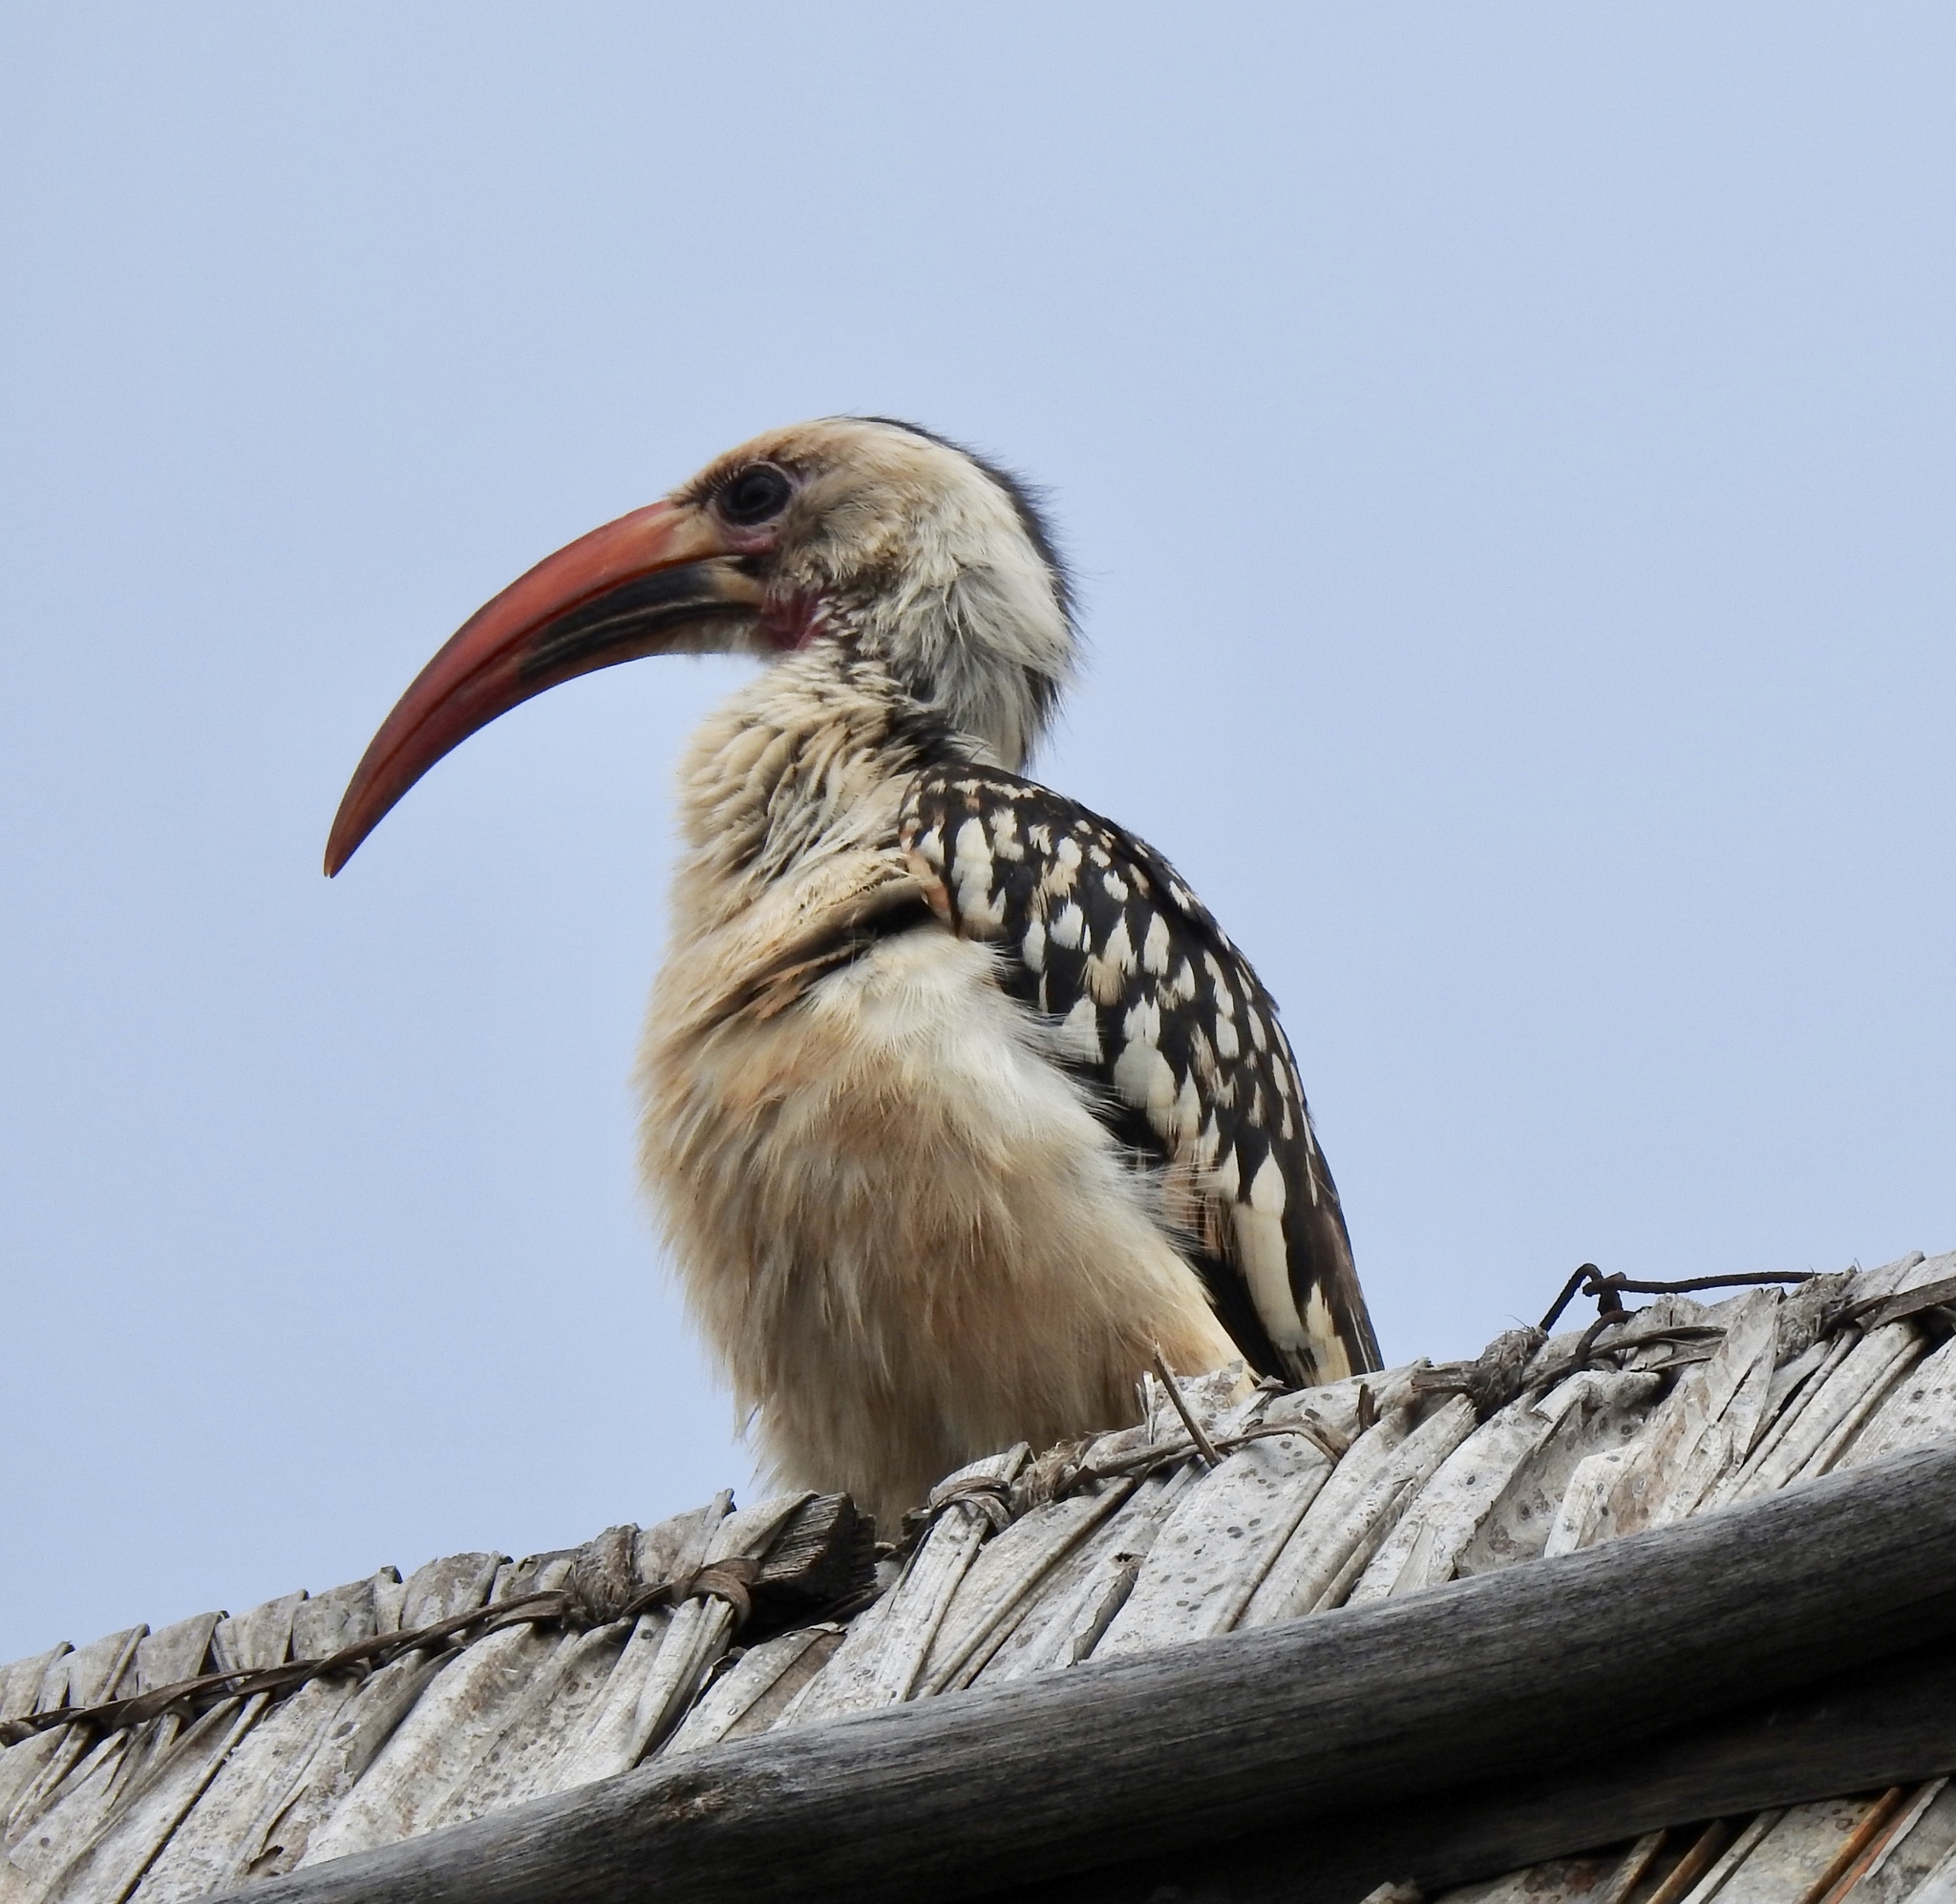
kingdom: Animalia
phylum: Chordata
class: Aves
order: Bucerotiformes
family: Bucerotidae
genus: Tockus
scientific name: Tockus erythrorhynchus
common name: Northern red-billed hornbill
